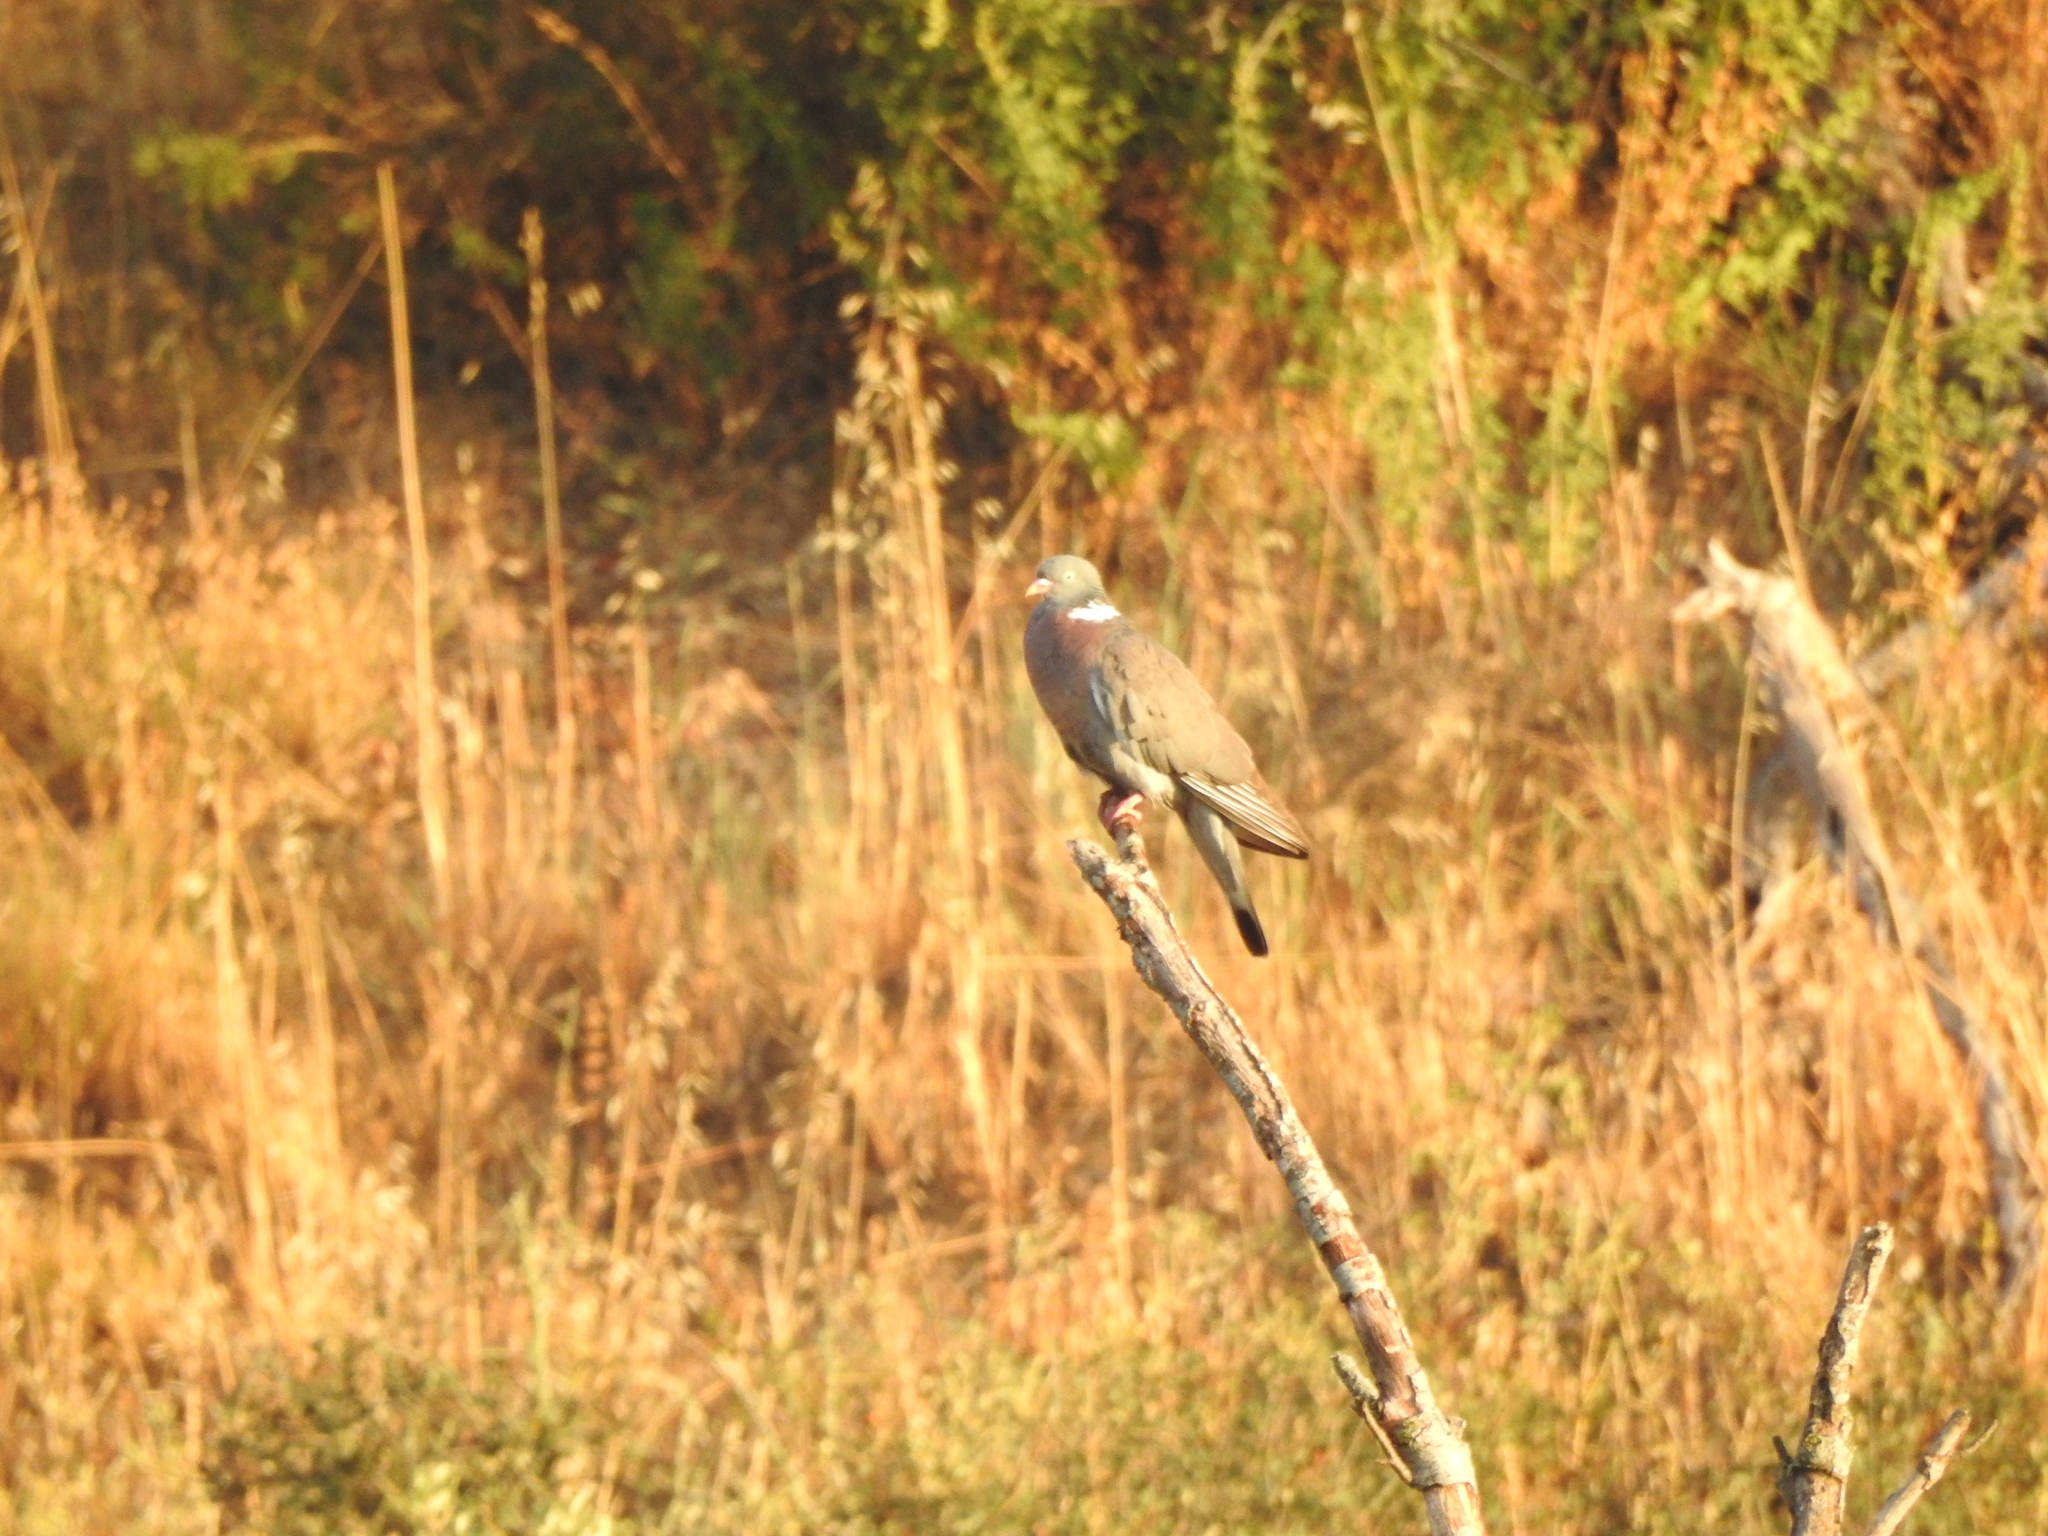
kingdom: Animalia
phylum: Chordata
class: Aves
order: Columbiformes
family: Columbidae
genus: Columba
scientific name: Columba palumbus
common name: Common wood pigeon
